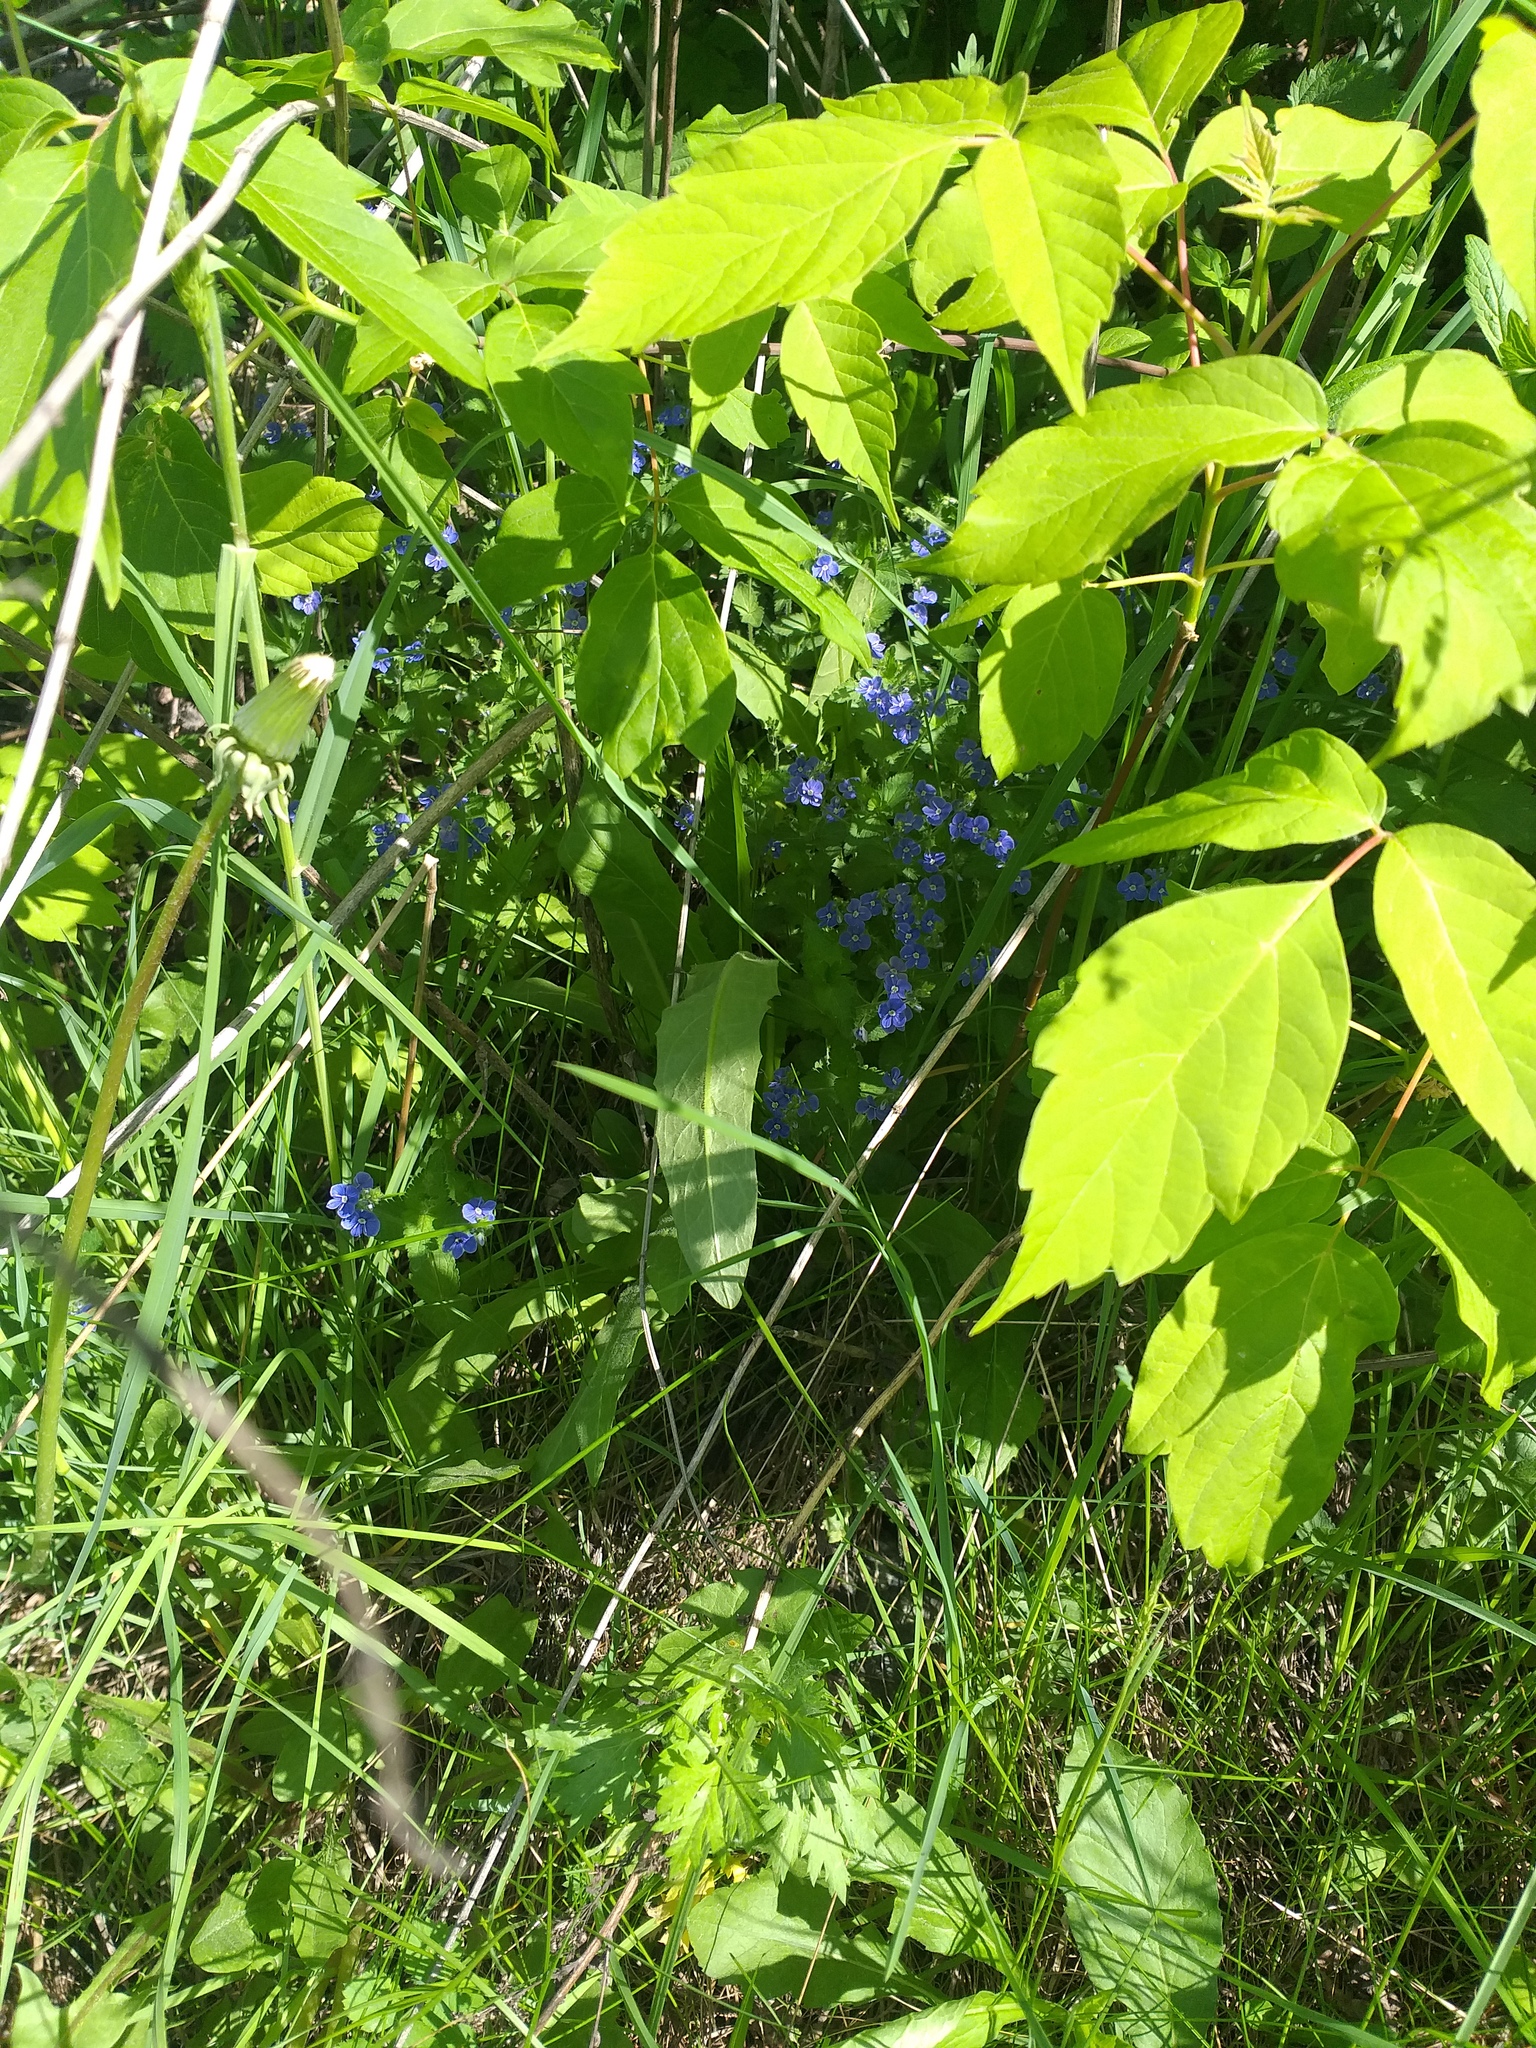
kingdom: Plantae
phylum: Tracheophyta
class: Magnoliopsida
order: Lamiales
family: Plantaginaceae
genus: Veronica
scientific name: Veronica chamaedrys
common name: Germander speedwell
